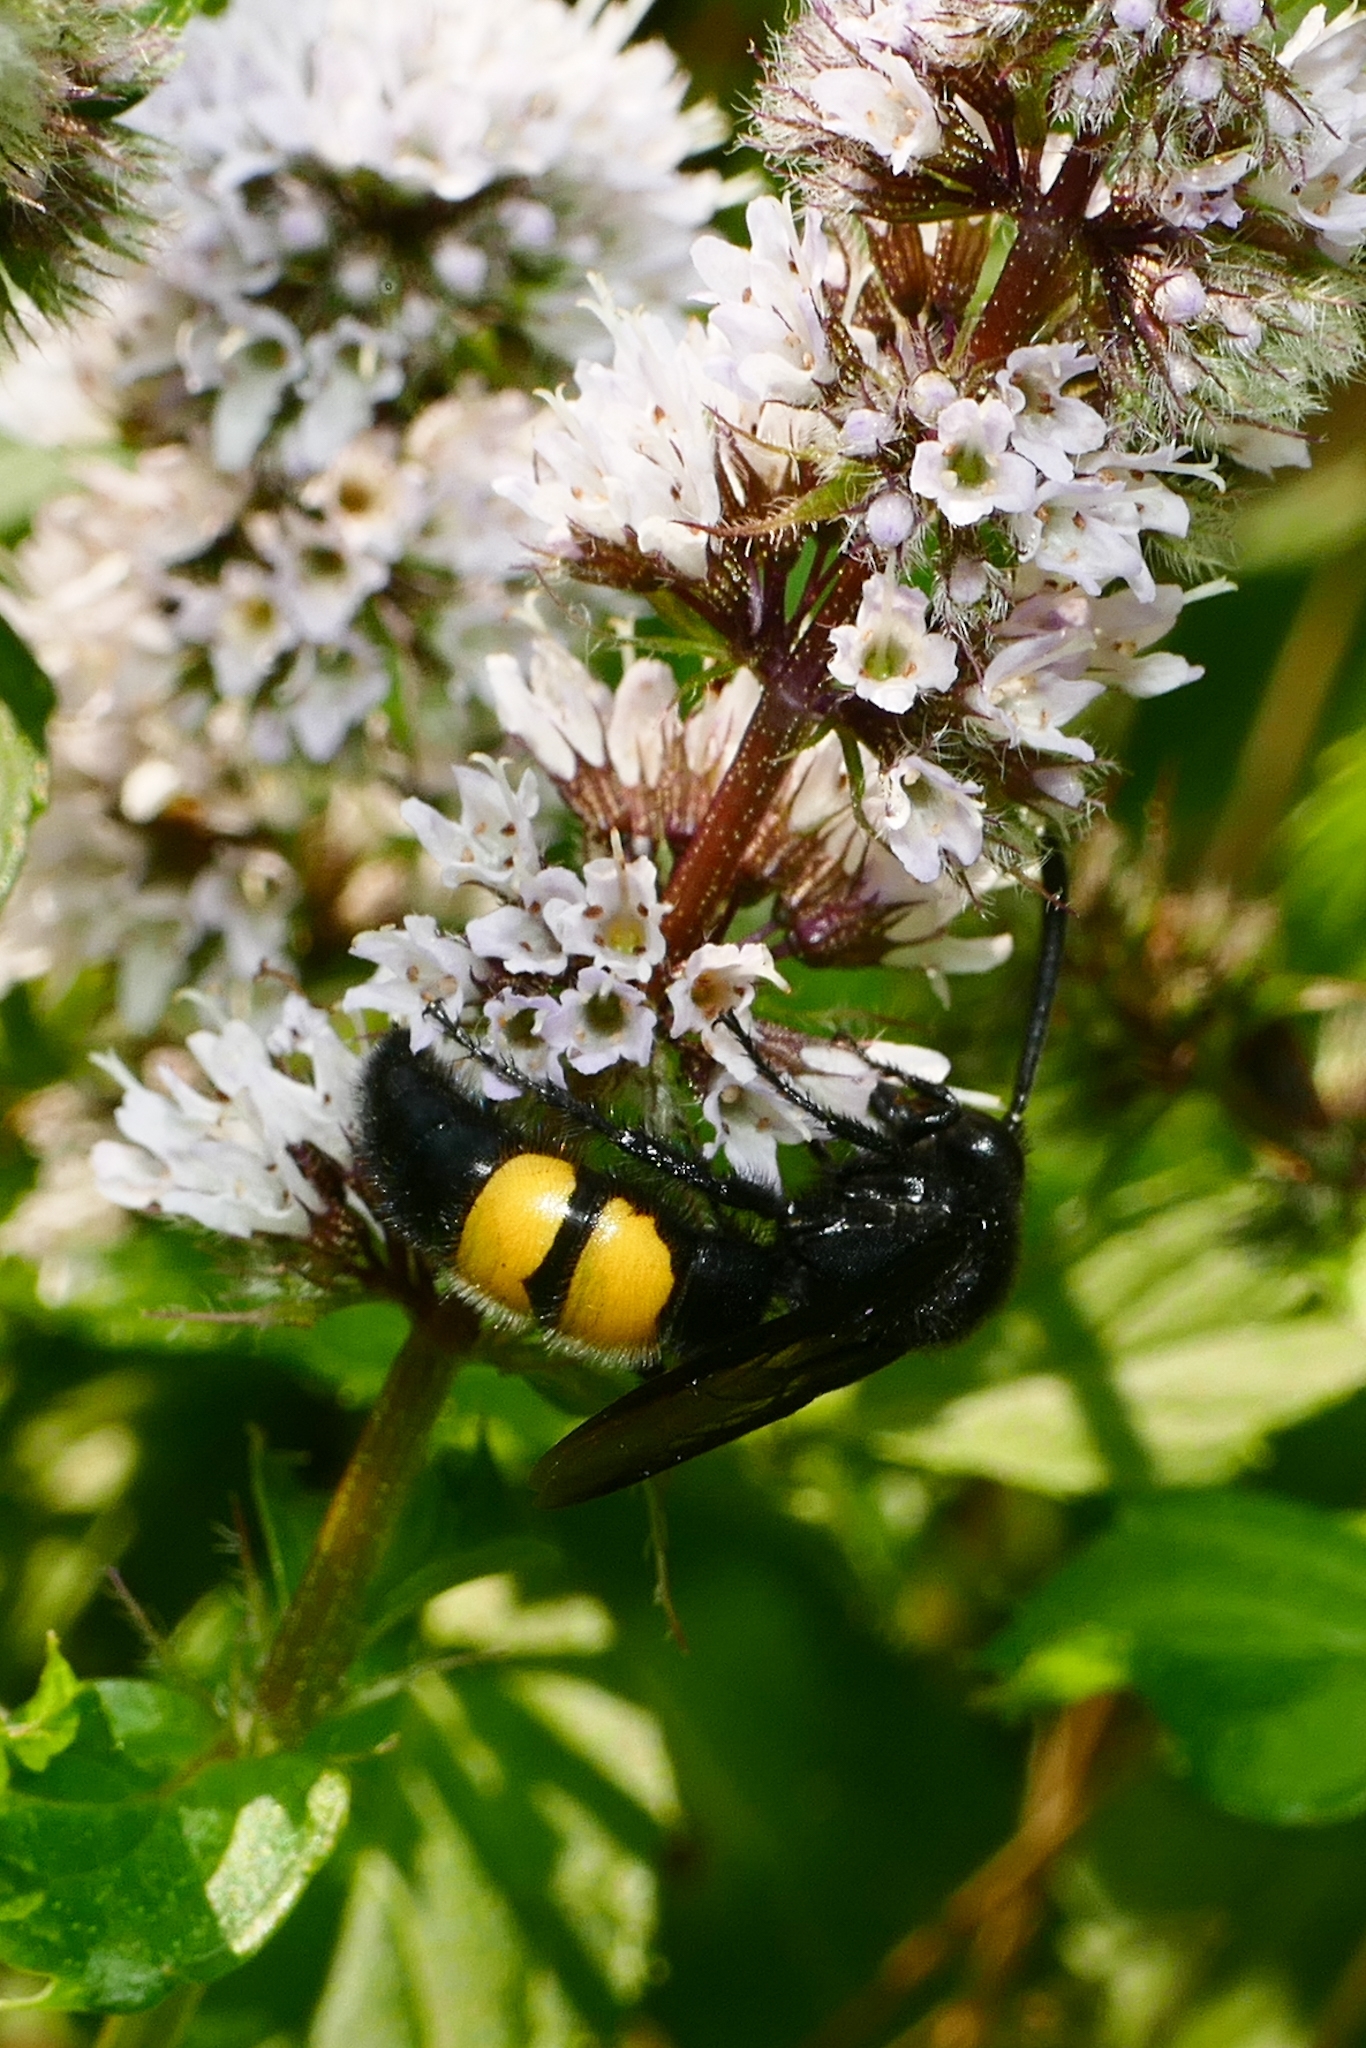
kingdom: Animalia
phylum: Arthropoda
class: Insecta
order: Hymenoptera
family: Scoliidae
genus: Scolia
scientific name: Scolia hirta
